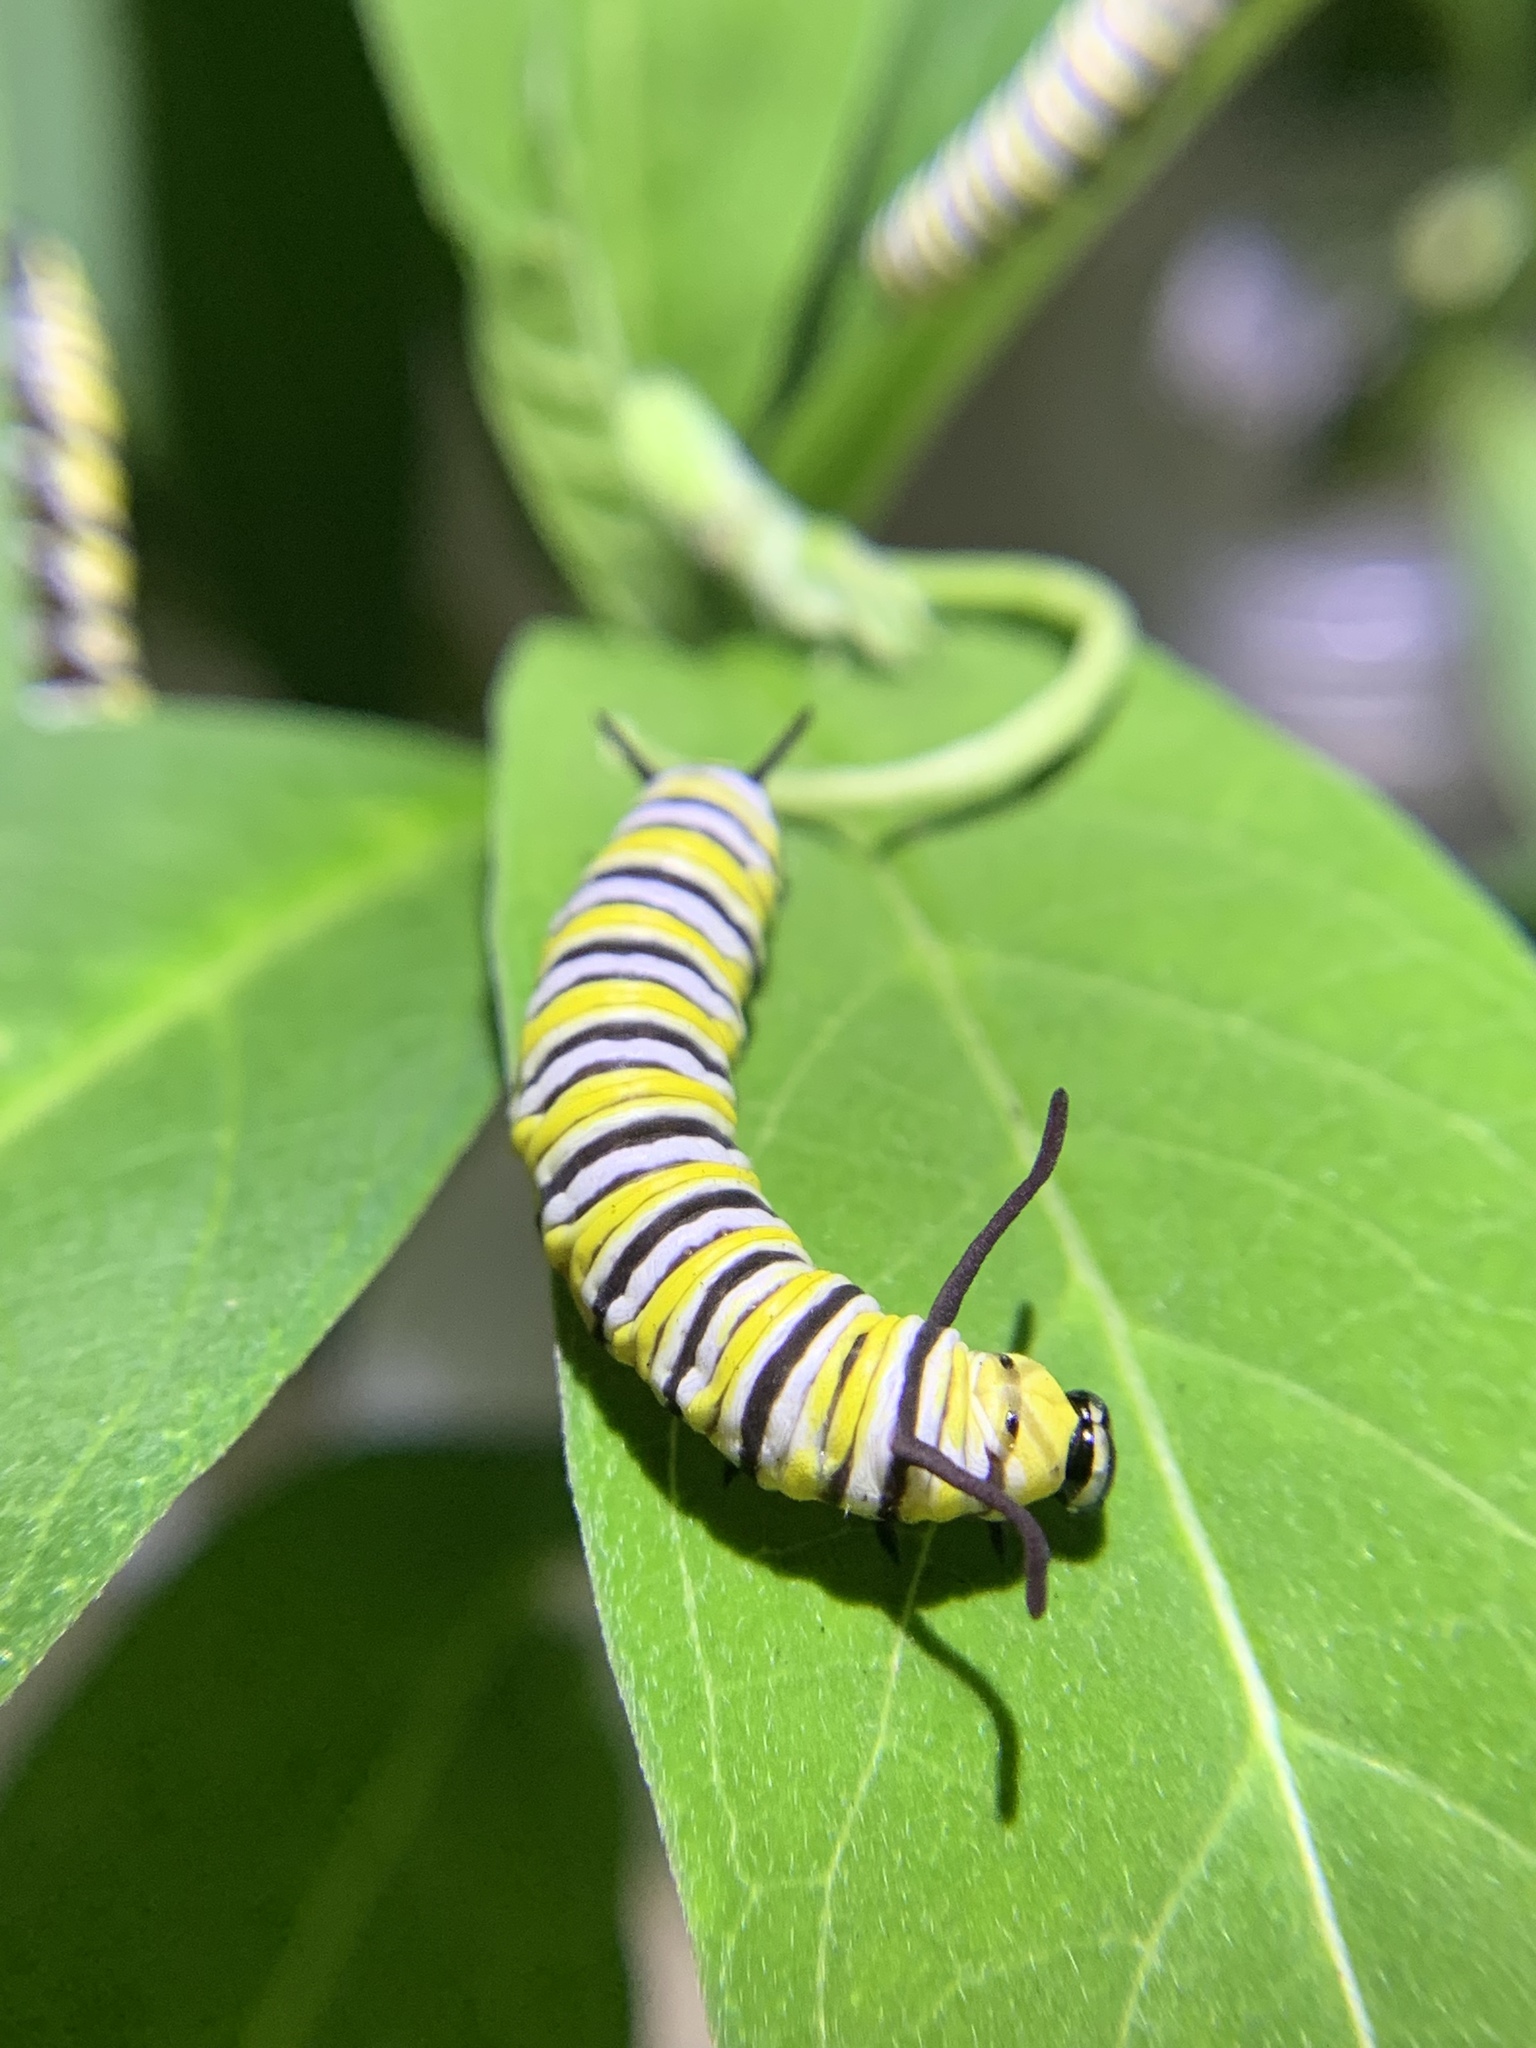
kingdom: Animalia
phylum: Arthropoda
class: Insecta
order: Lepidoptera
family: Nymphalidae
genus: Danaus
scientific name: Danaus plexippus
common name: Monarch
